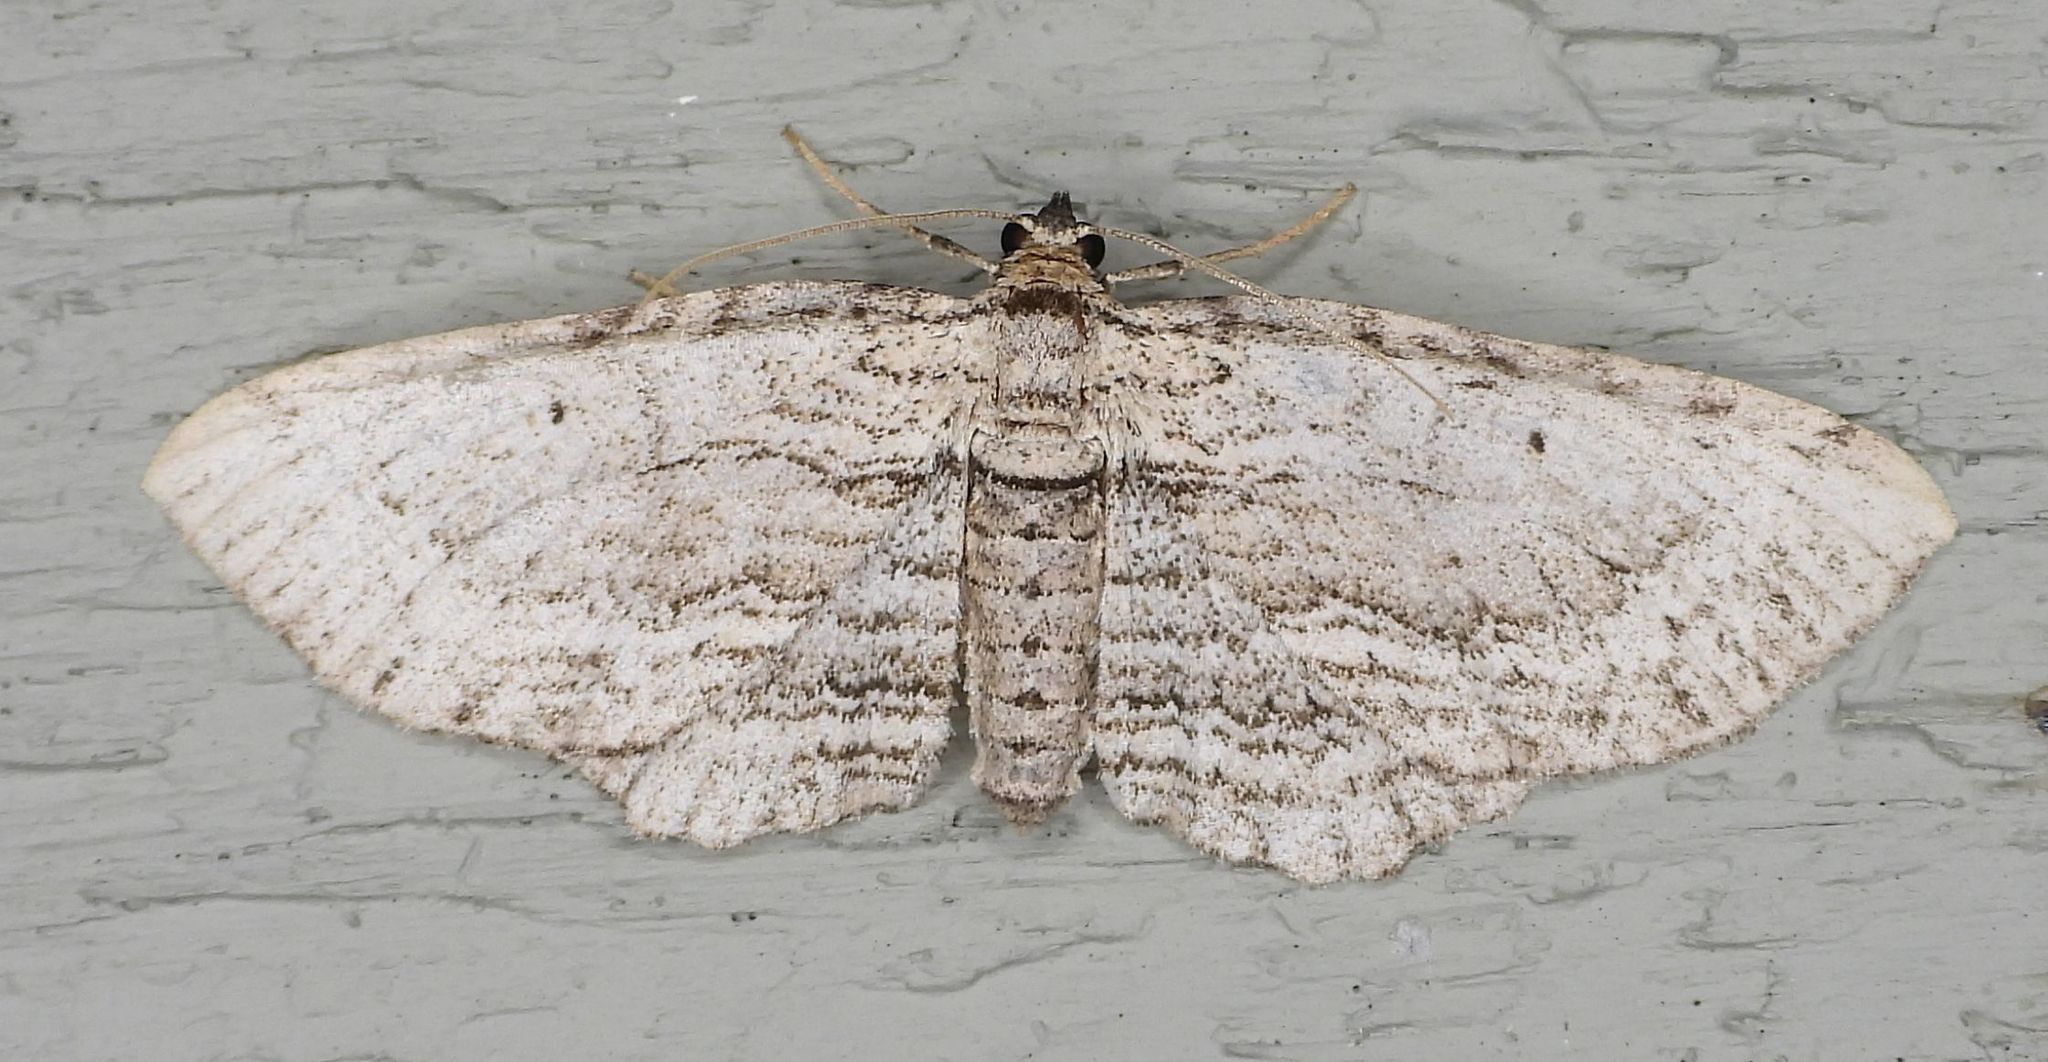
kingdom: Animalia
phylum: Arthropoda
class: Insecta
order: Lepidoptera
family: Geometridae
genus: Horisme
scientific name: Horisme intestinata
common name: Brown bark carpet
